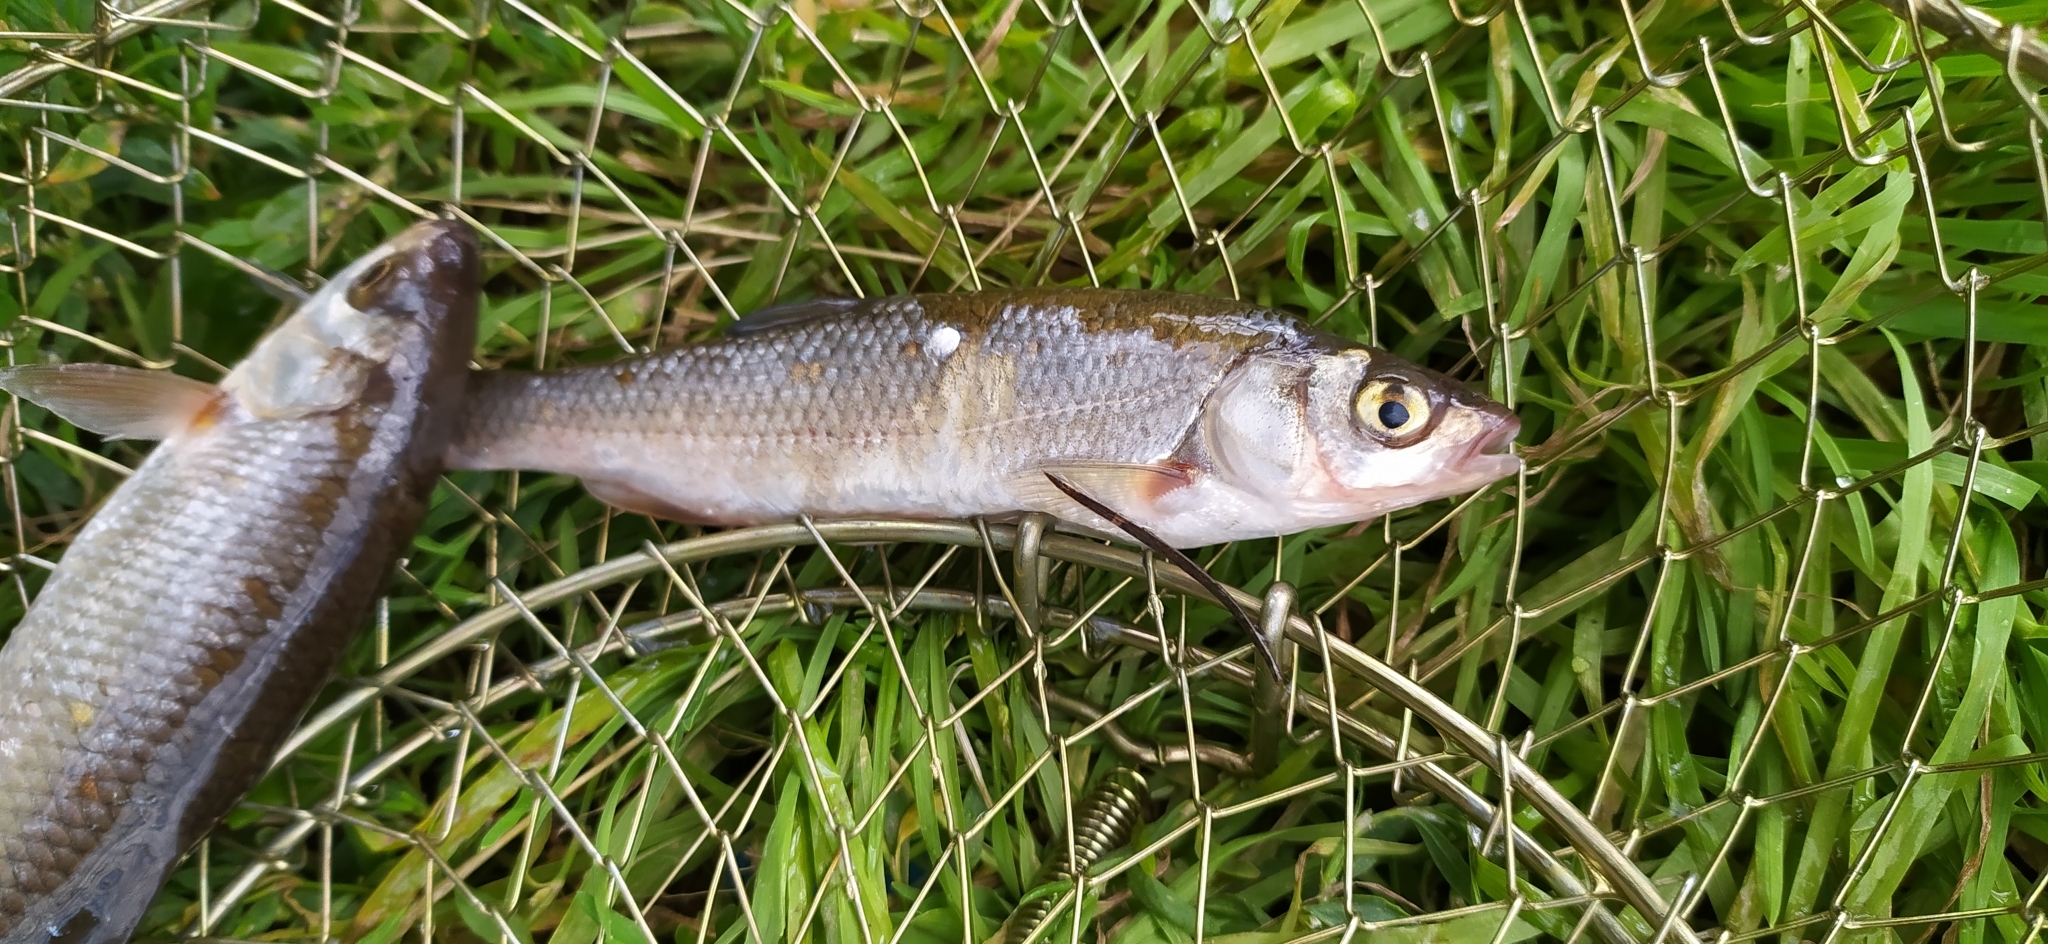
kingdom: Animalia
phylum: Chordata
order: Cypriniformes
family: Cyprinidae
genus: Leuciscus
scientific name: Leuciscus leuciscus
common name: Dace
